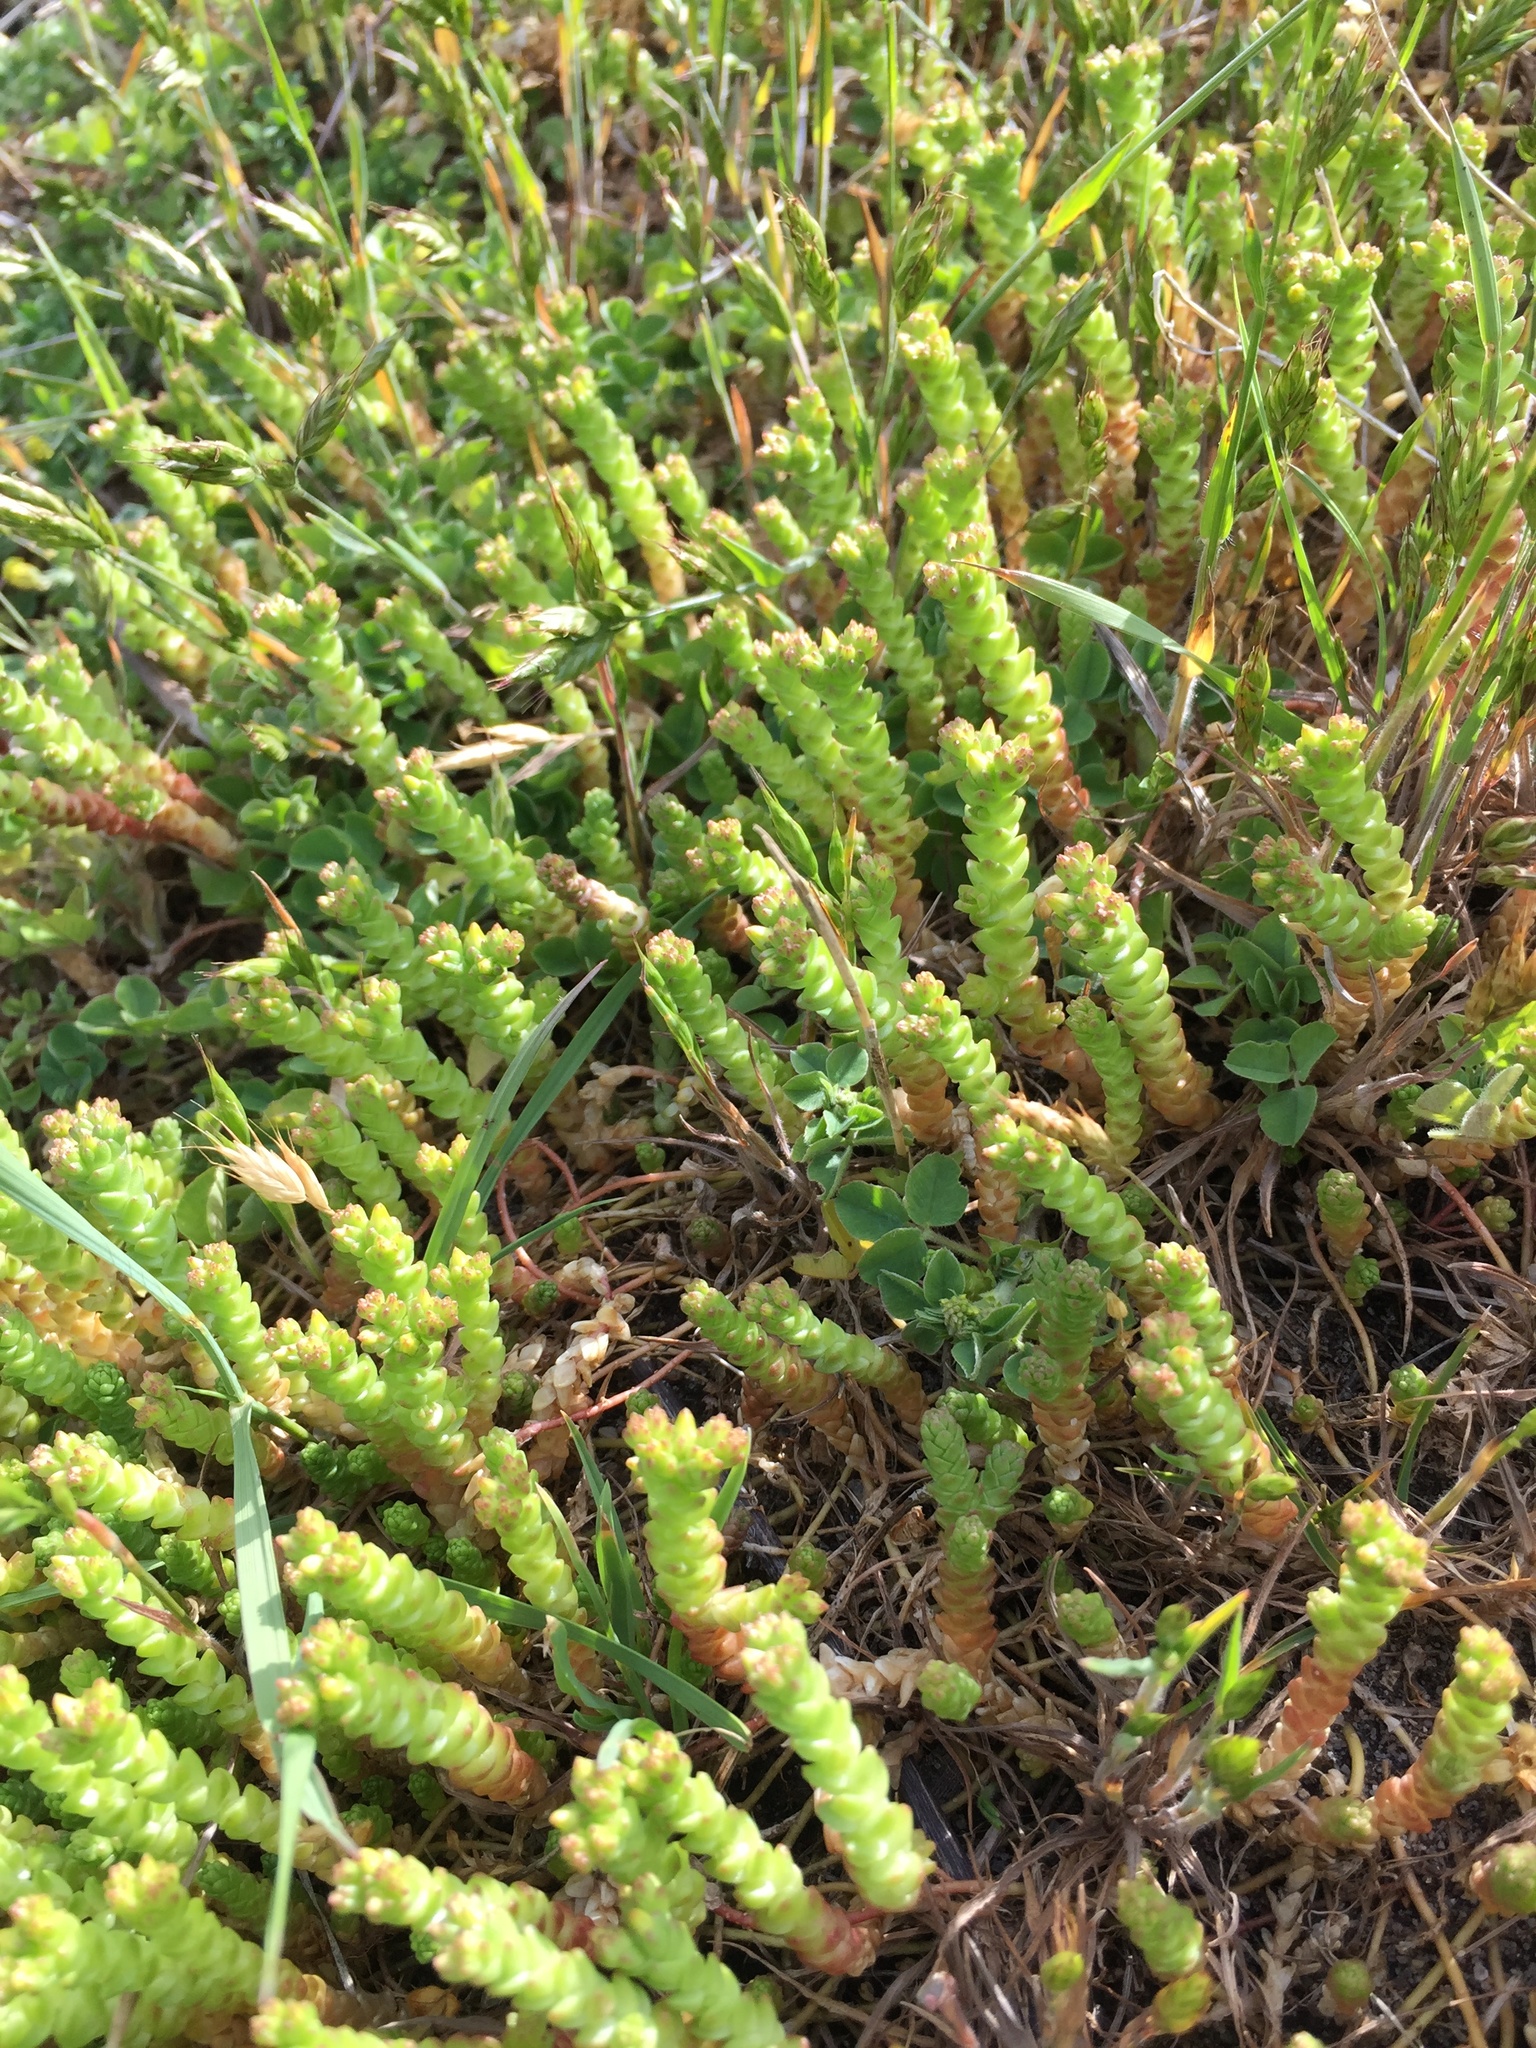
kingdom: Plantae
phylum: Tracheophyta
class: Magnoliopsida
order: Saxifragales
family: Crassulaceae
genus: Sedum
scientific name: Sedum acre
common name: Biting stonecrop
